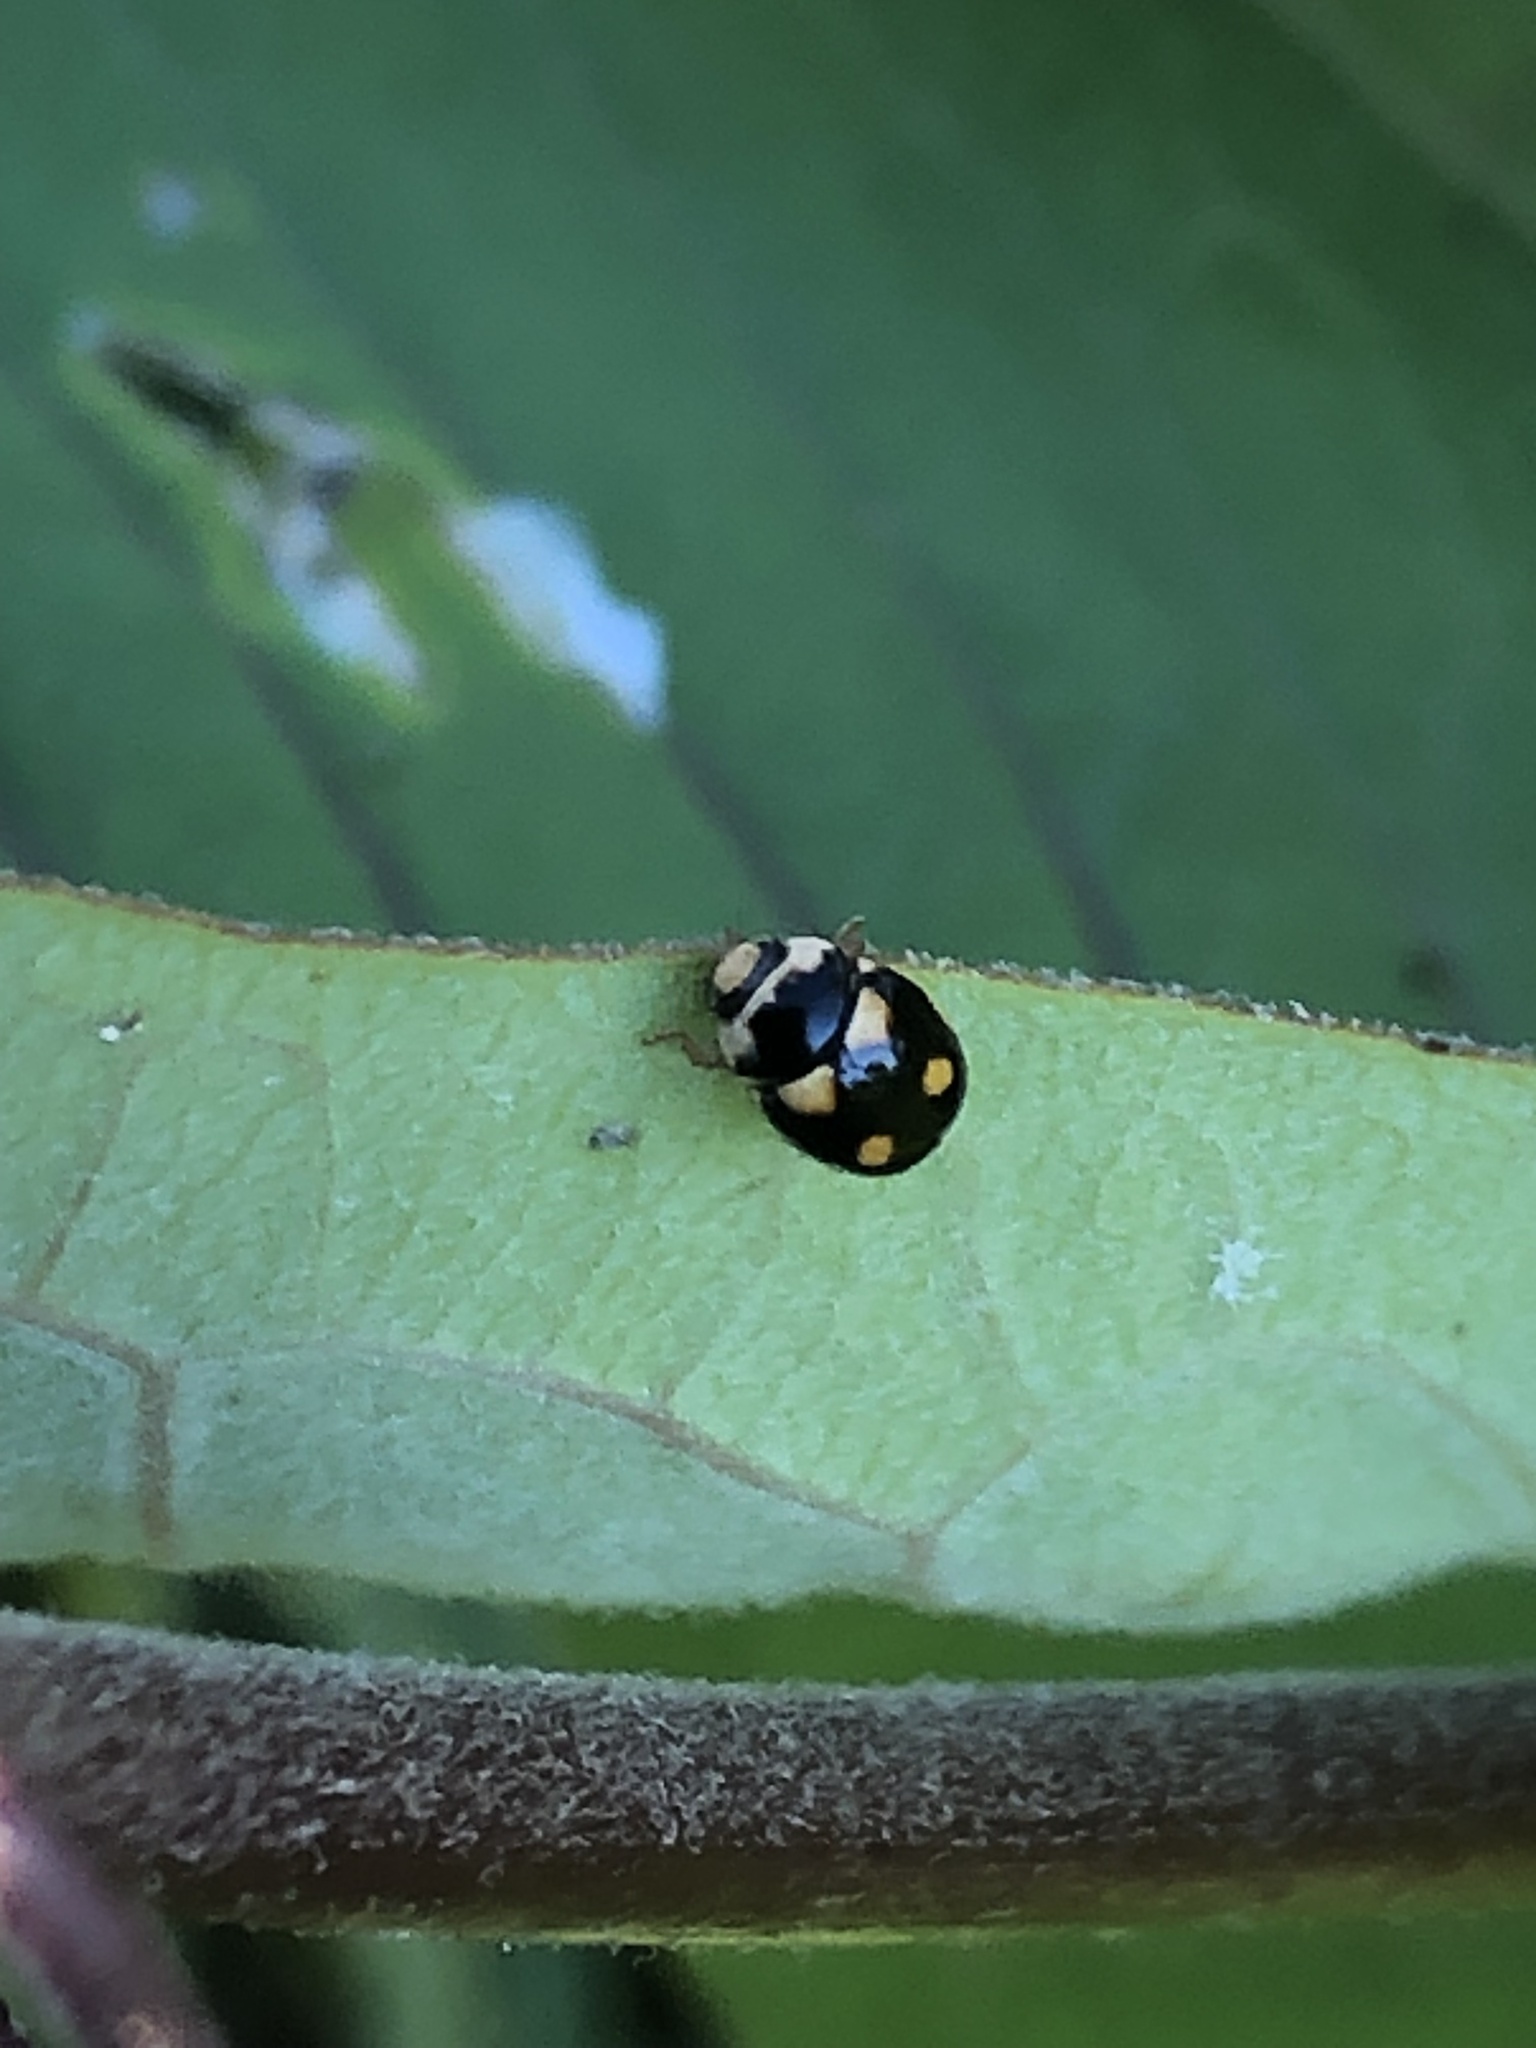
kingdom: Animalia
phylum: Arthropoda
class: Insecta
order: Coleoptera
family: Coccinellidae
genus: Brachiacantha
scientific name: Brachiacantha ursina
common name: Ursine spurleg lady beetle
